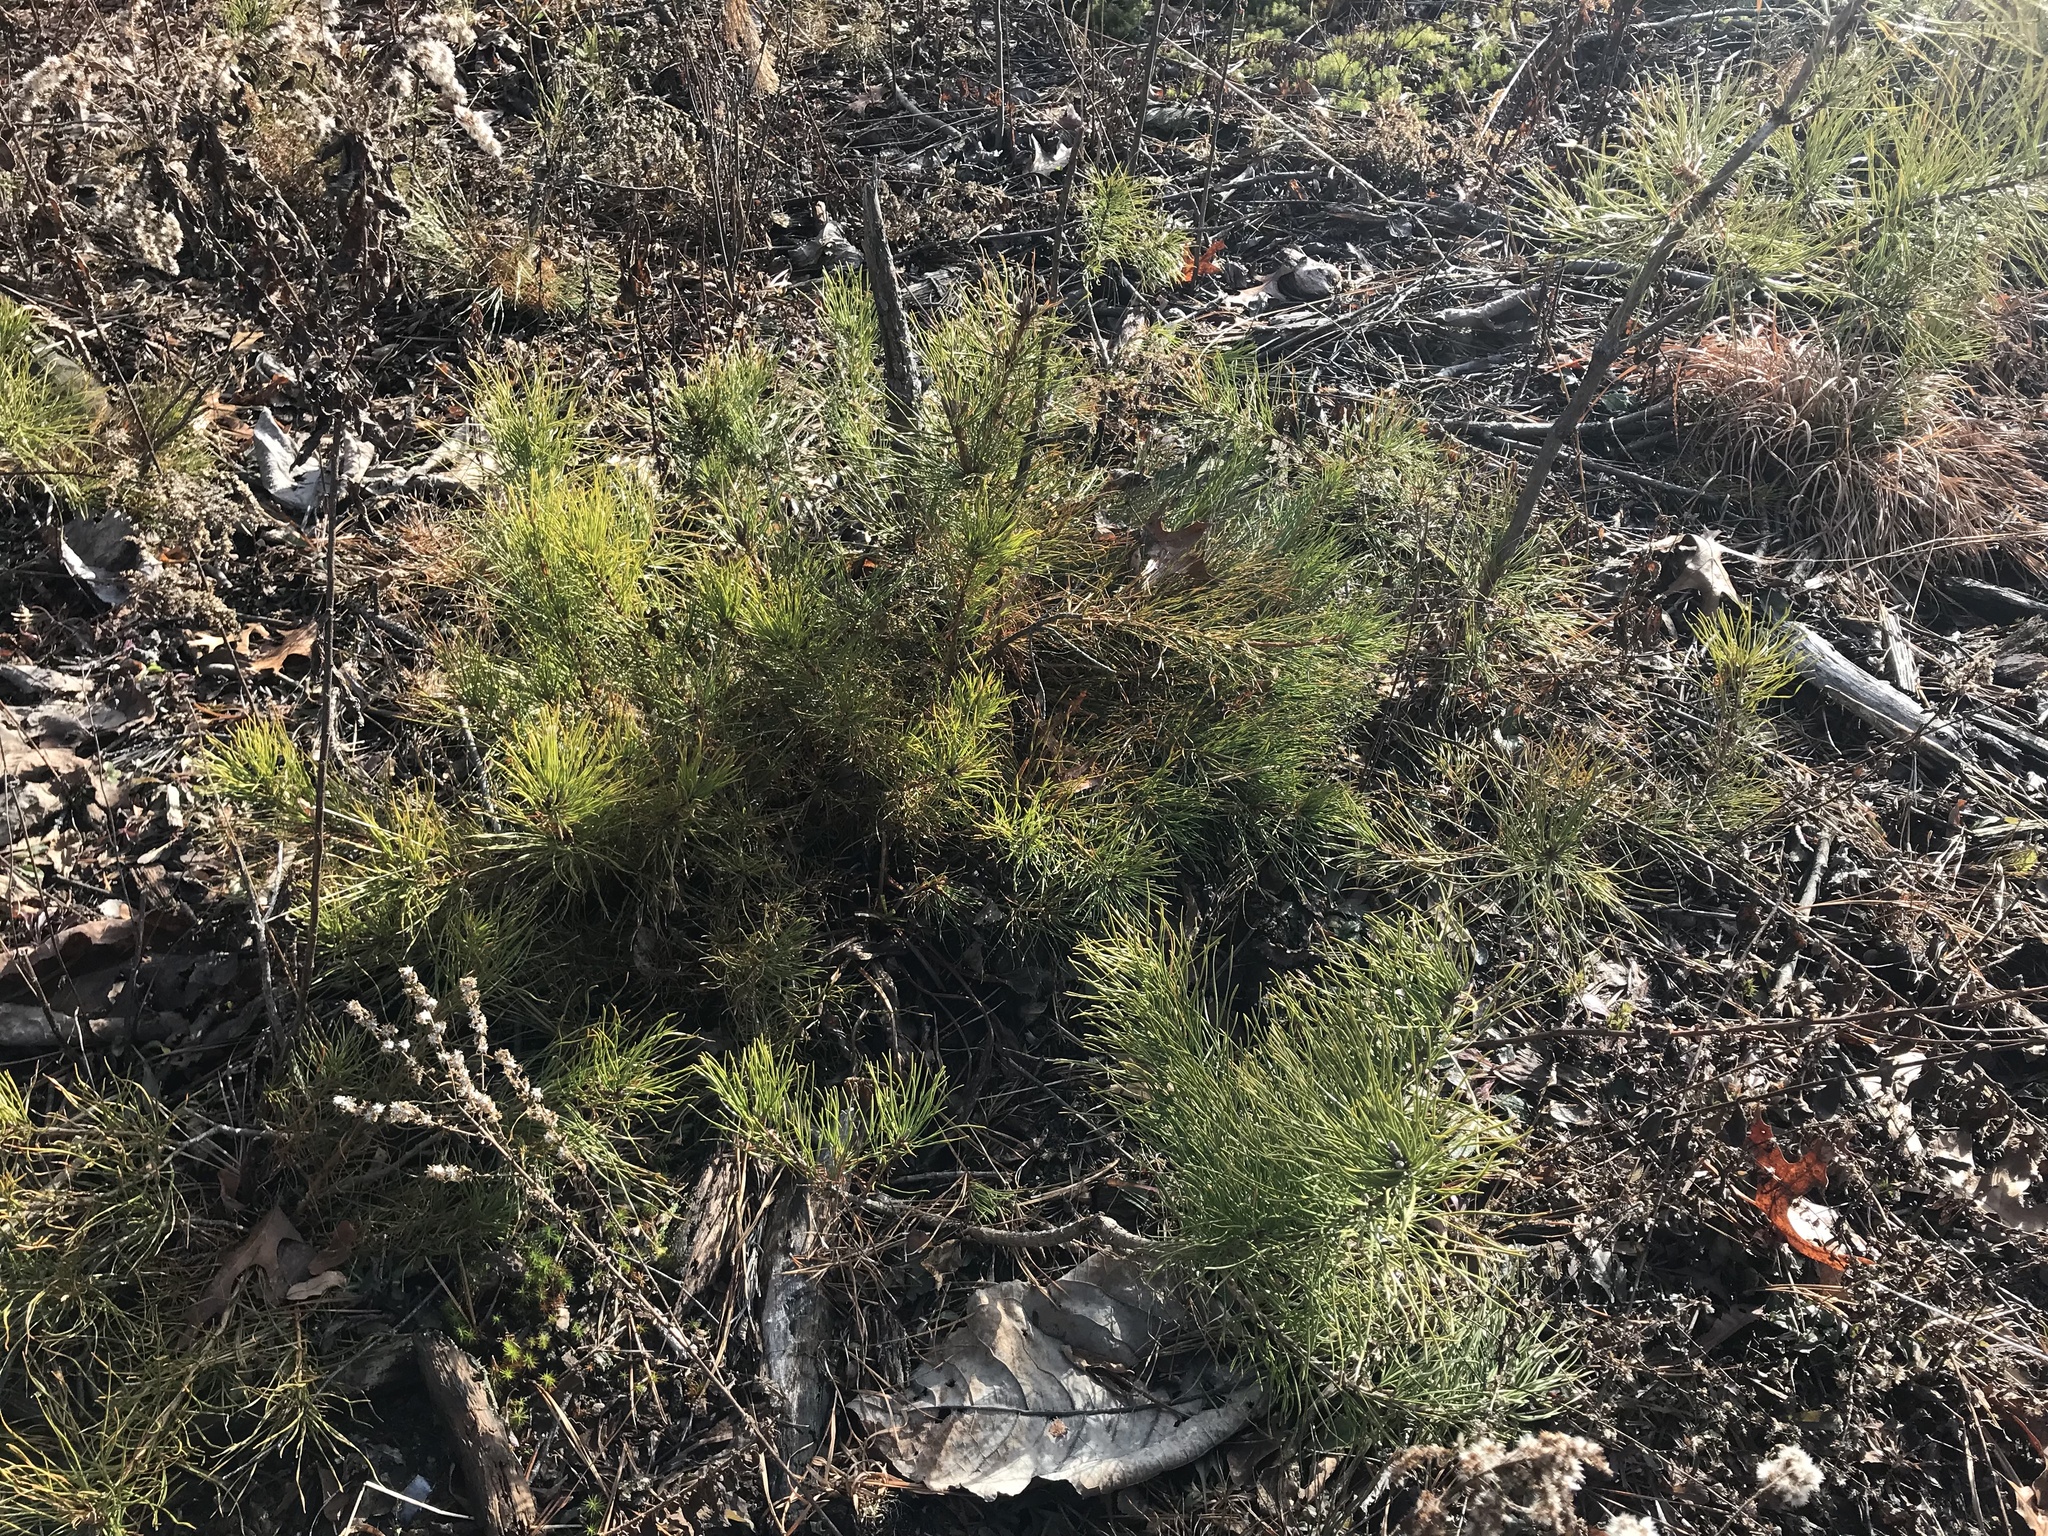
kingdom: Plantae
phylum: Tracheophyta
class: Pinopsida
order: Pinales
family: Pinaceae
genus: Pinus
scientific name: Pinus rigida
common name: Pitch pine
